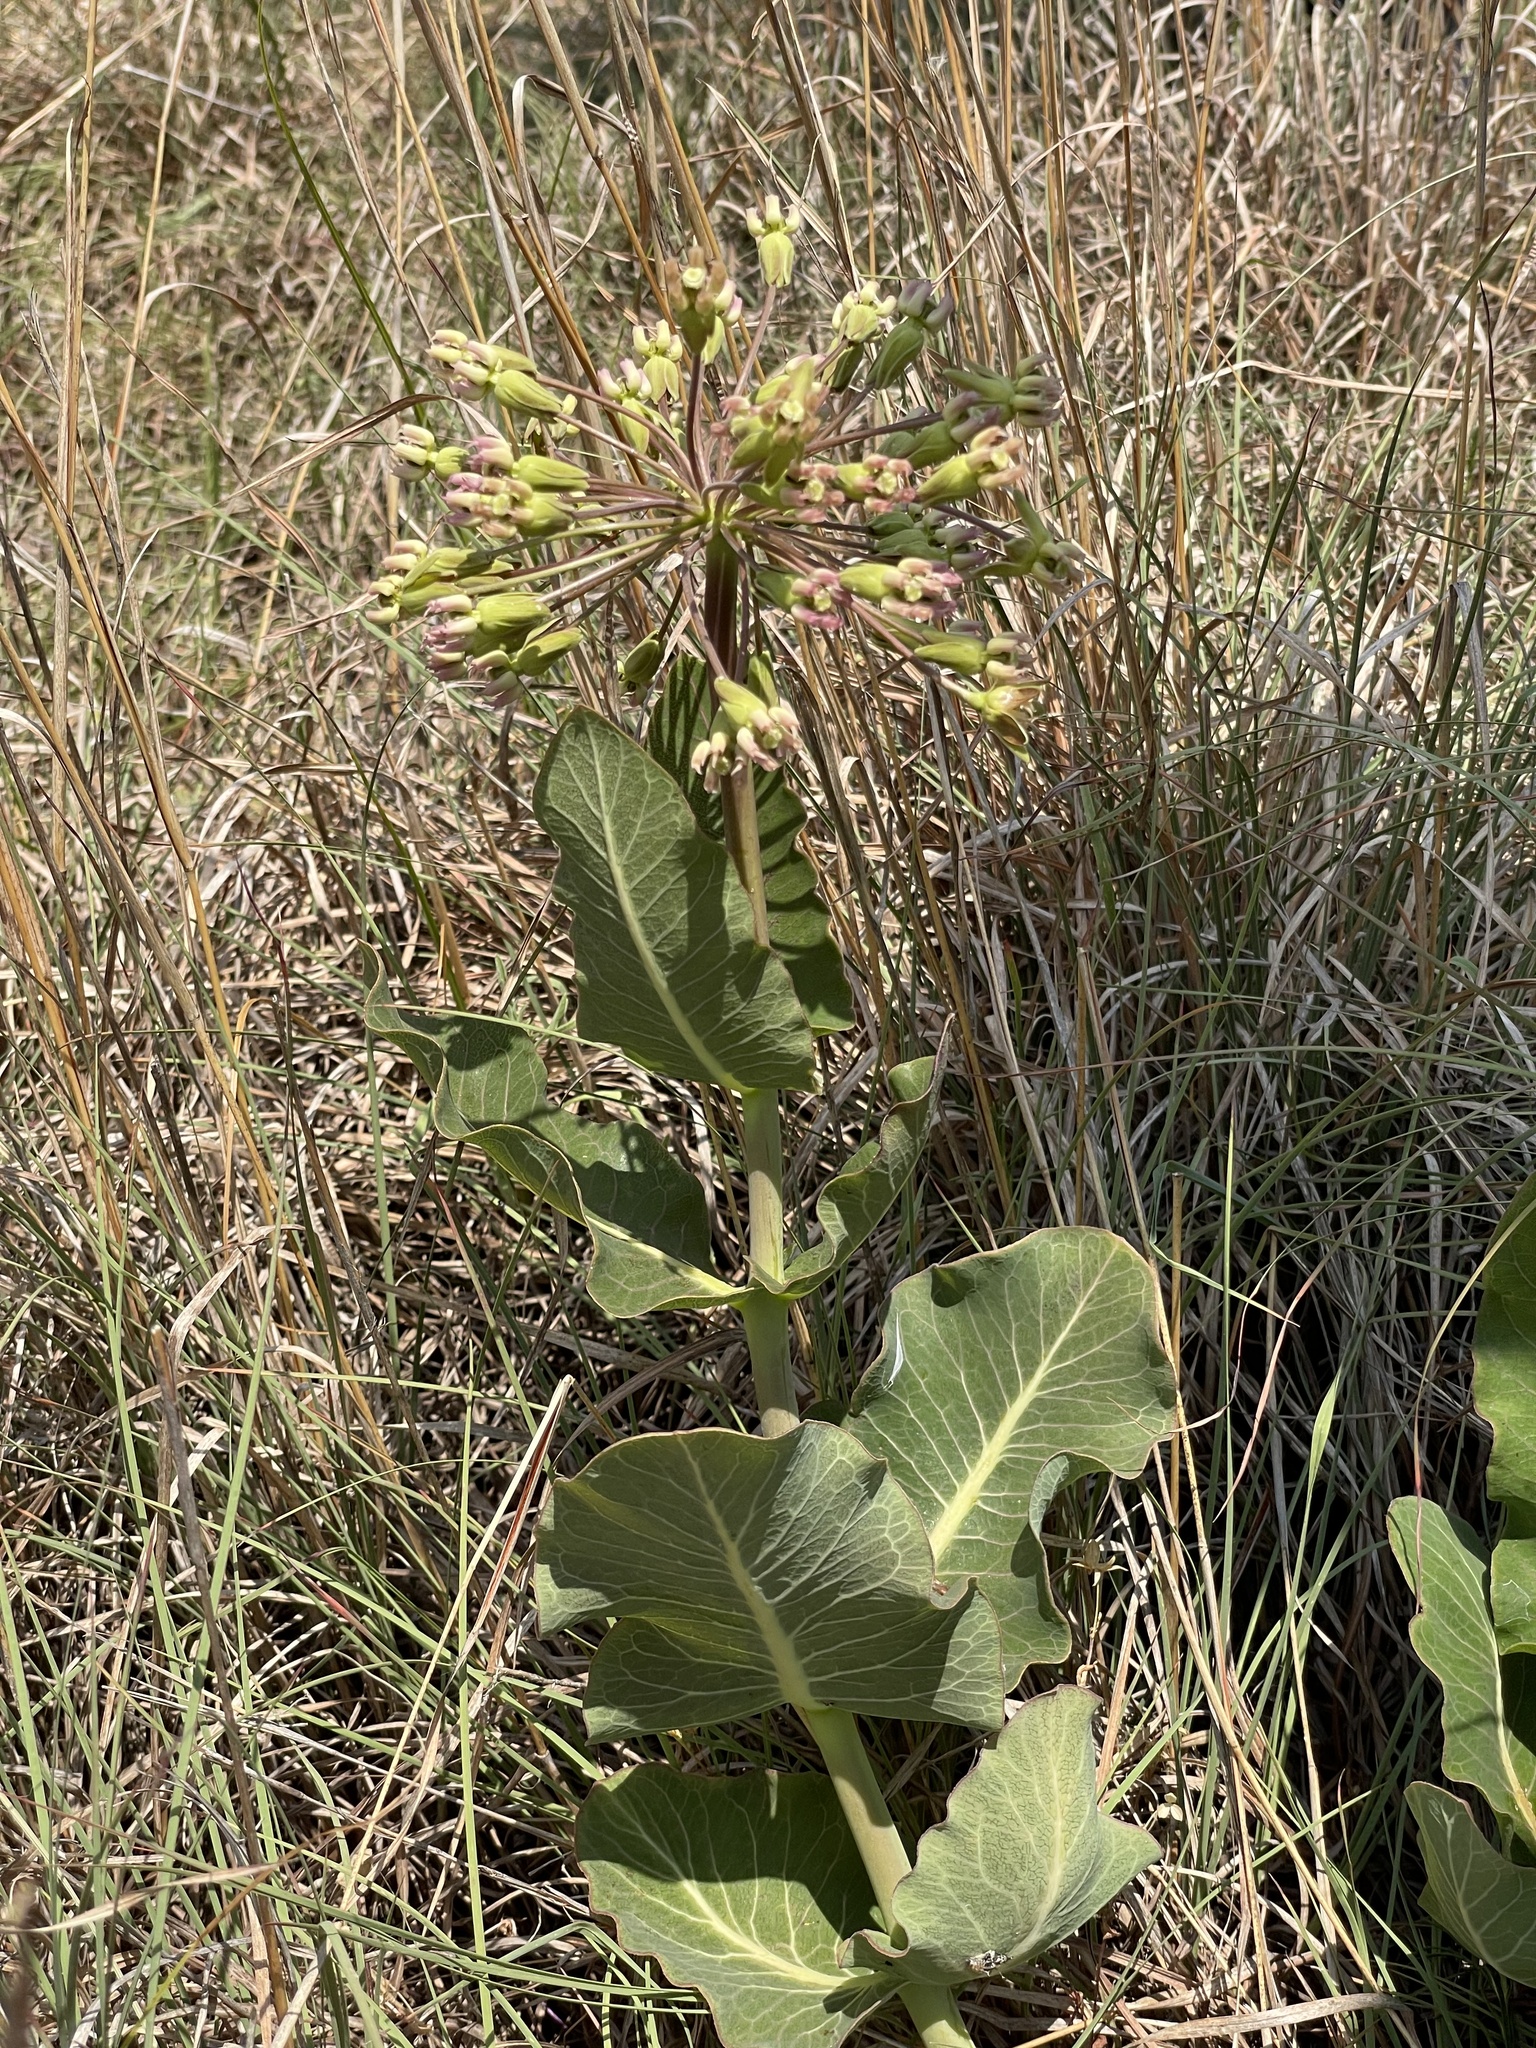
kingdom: Plantae
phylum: Tracheophyta
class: Magnoliopsida
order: Gentianales
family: Apocynaceae
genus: Asclepias
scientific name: Asclepias amplexicaulis
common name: Blunt-leaf milkweed
